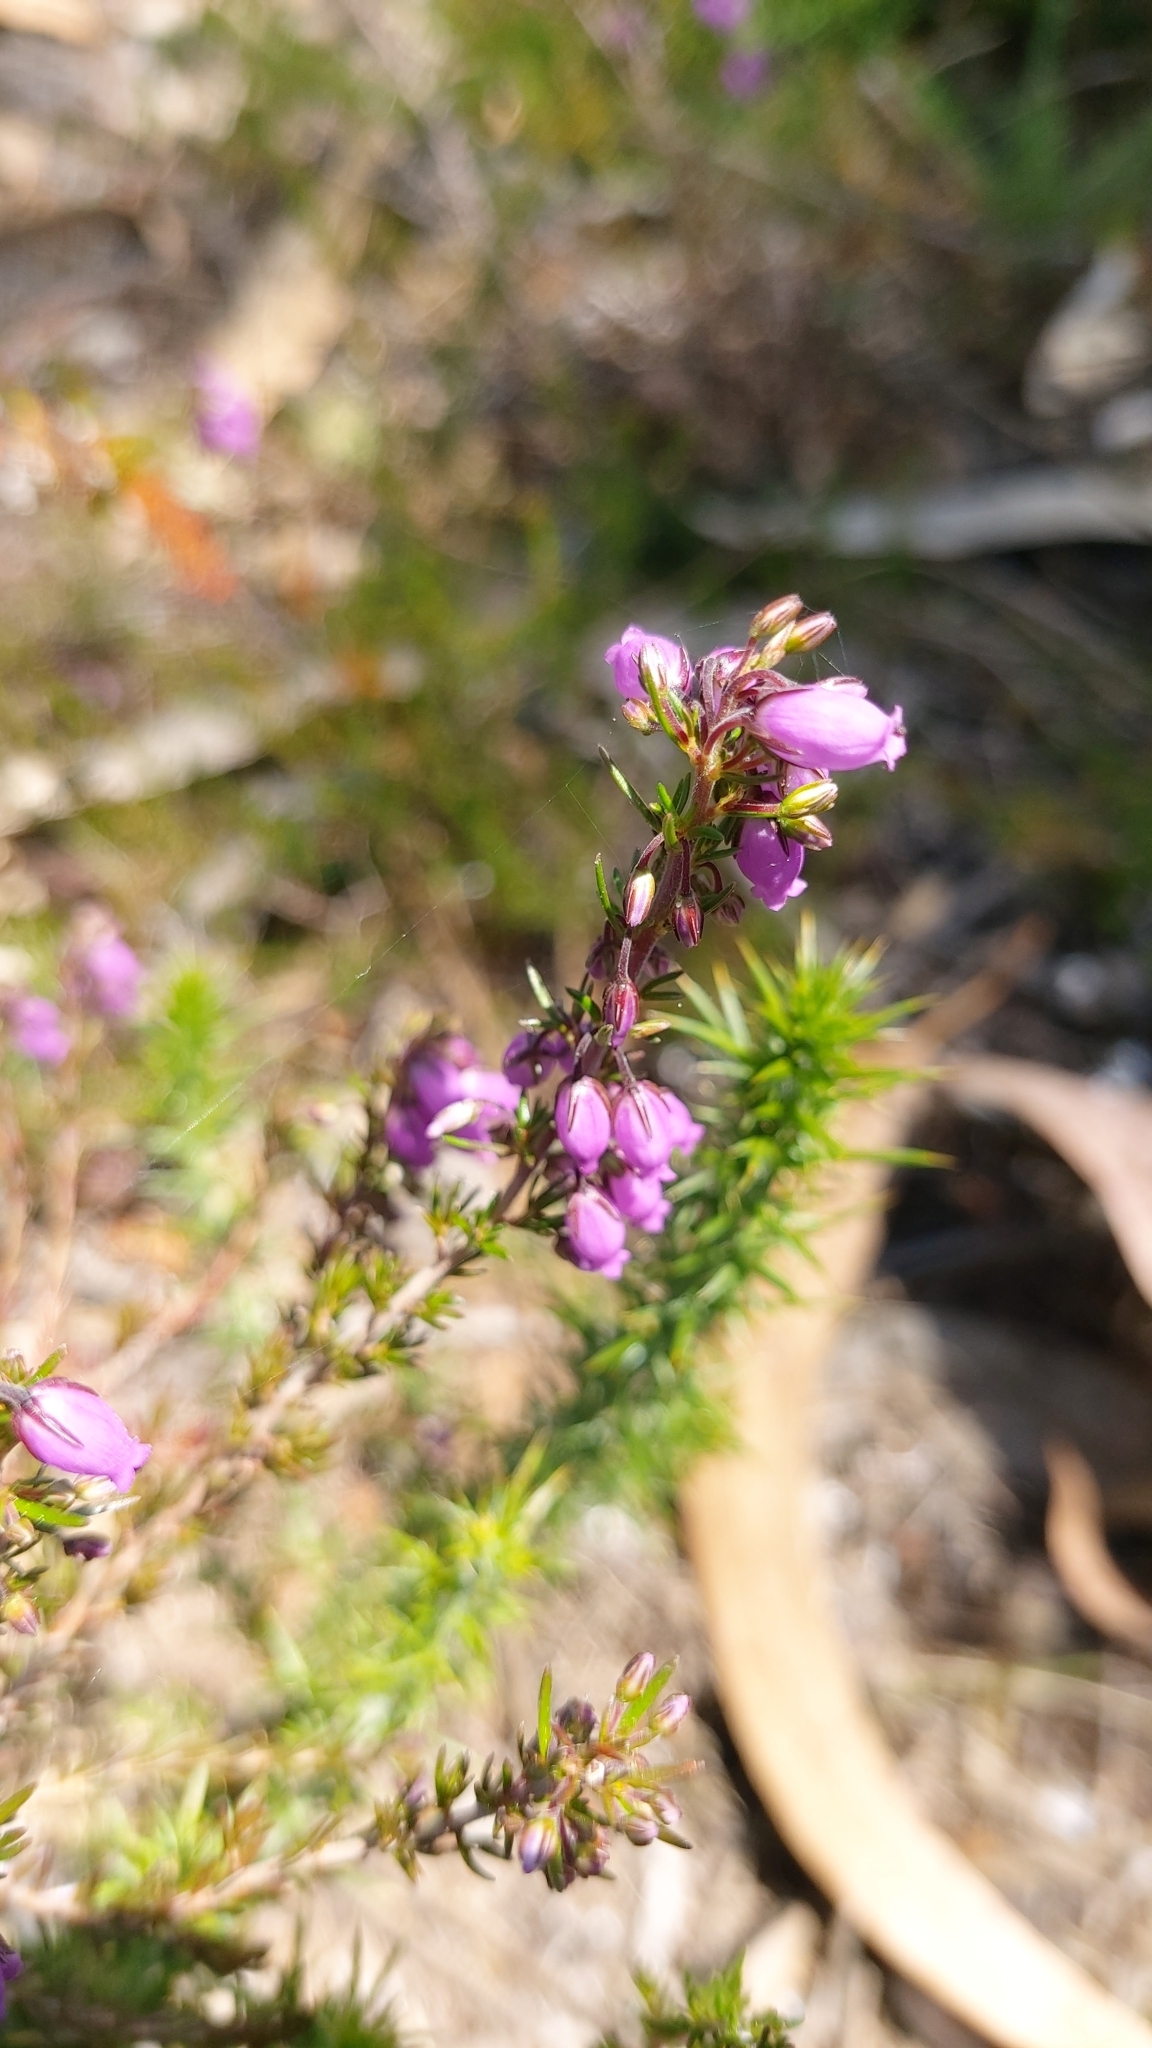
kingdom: Plantae
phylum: Tracheophyta
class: Magnoliopsida
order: Ericales
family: Ericaceae
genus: Erica
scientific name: Erica cinerea
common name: Bell heather
